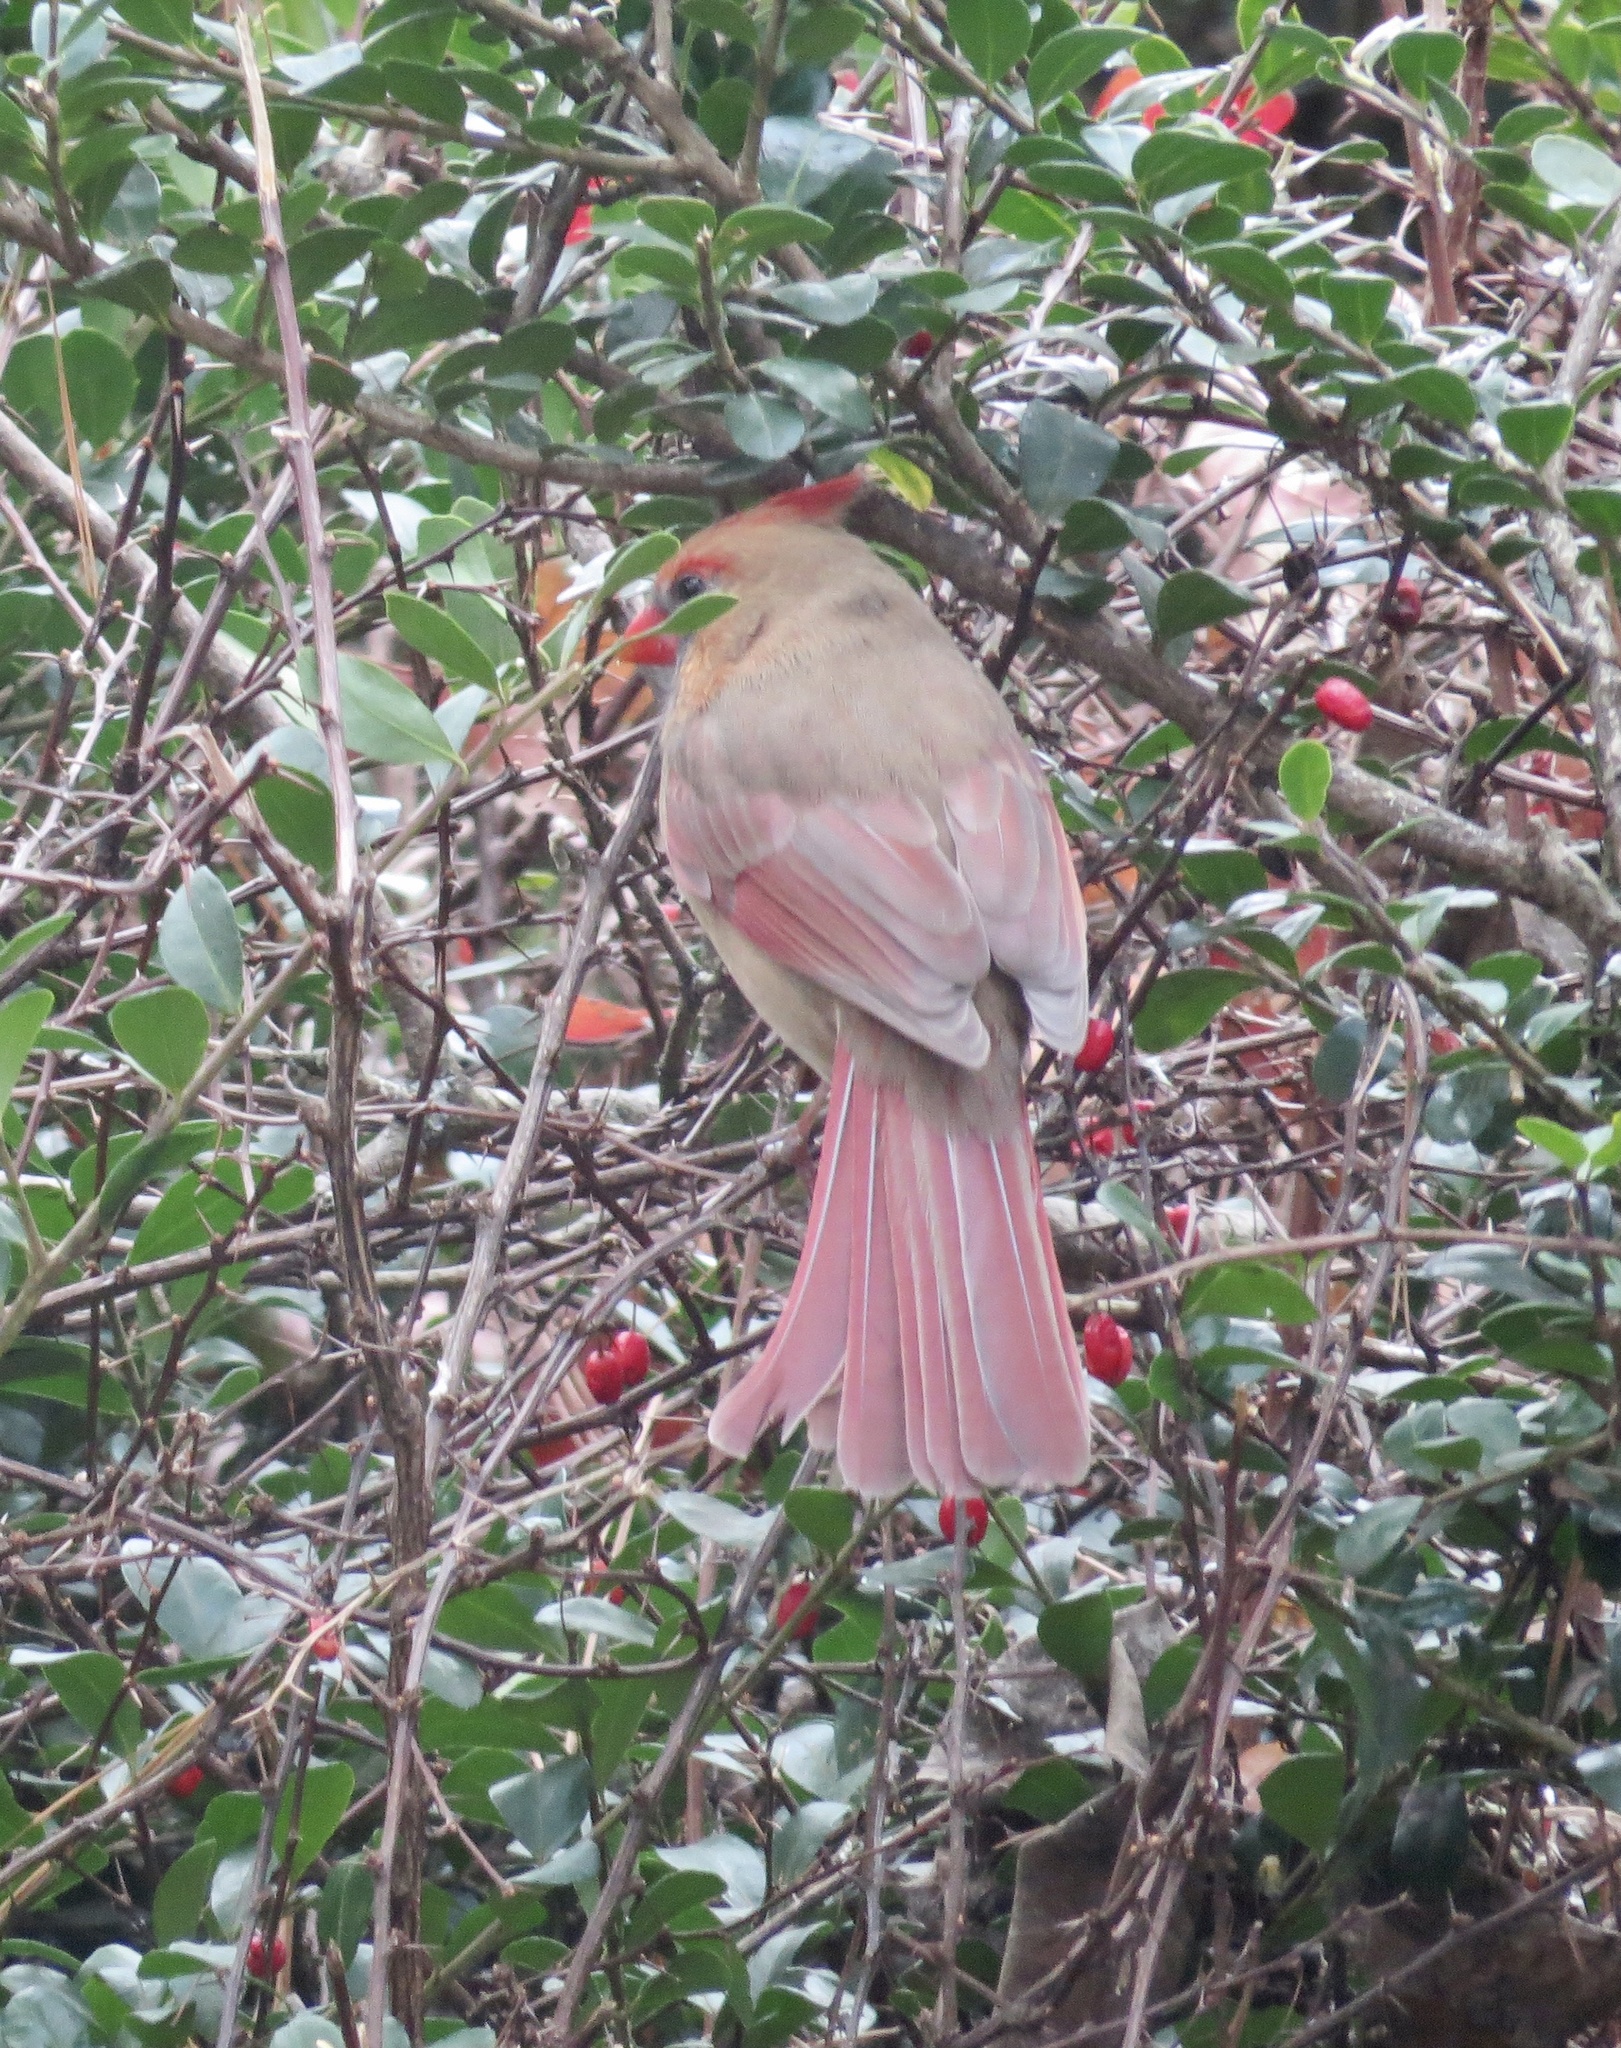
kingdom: Animalia
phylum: Chordata
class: Aves
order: Passeriformes
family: Cardinalidae
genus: Cardinalis
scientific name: Cardinalis cardinalis
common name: Northern cardinal
